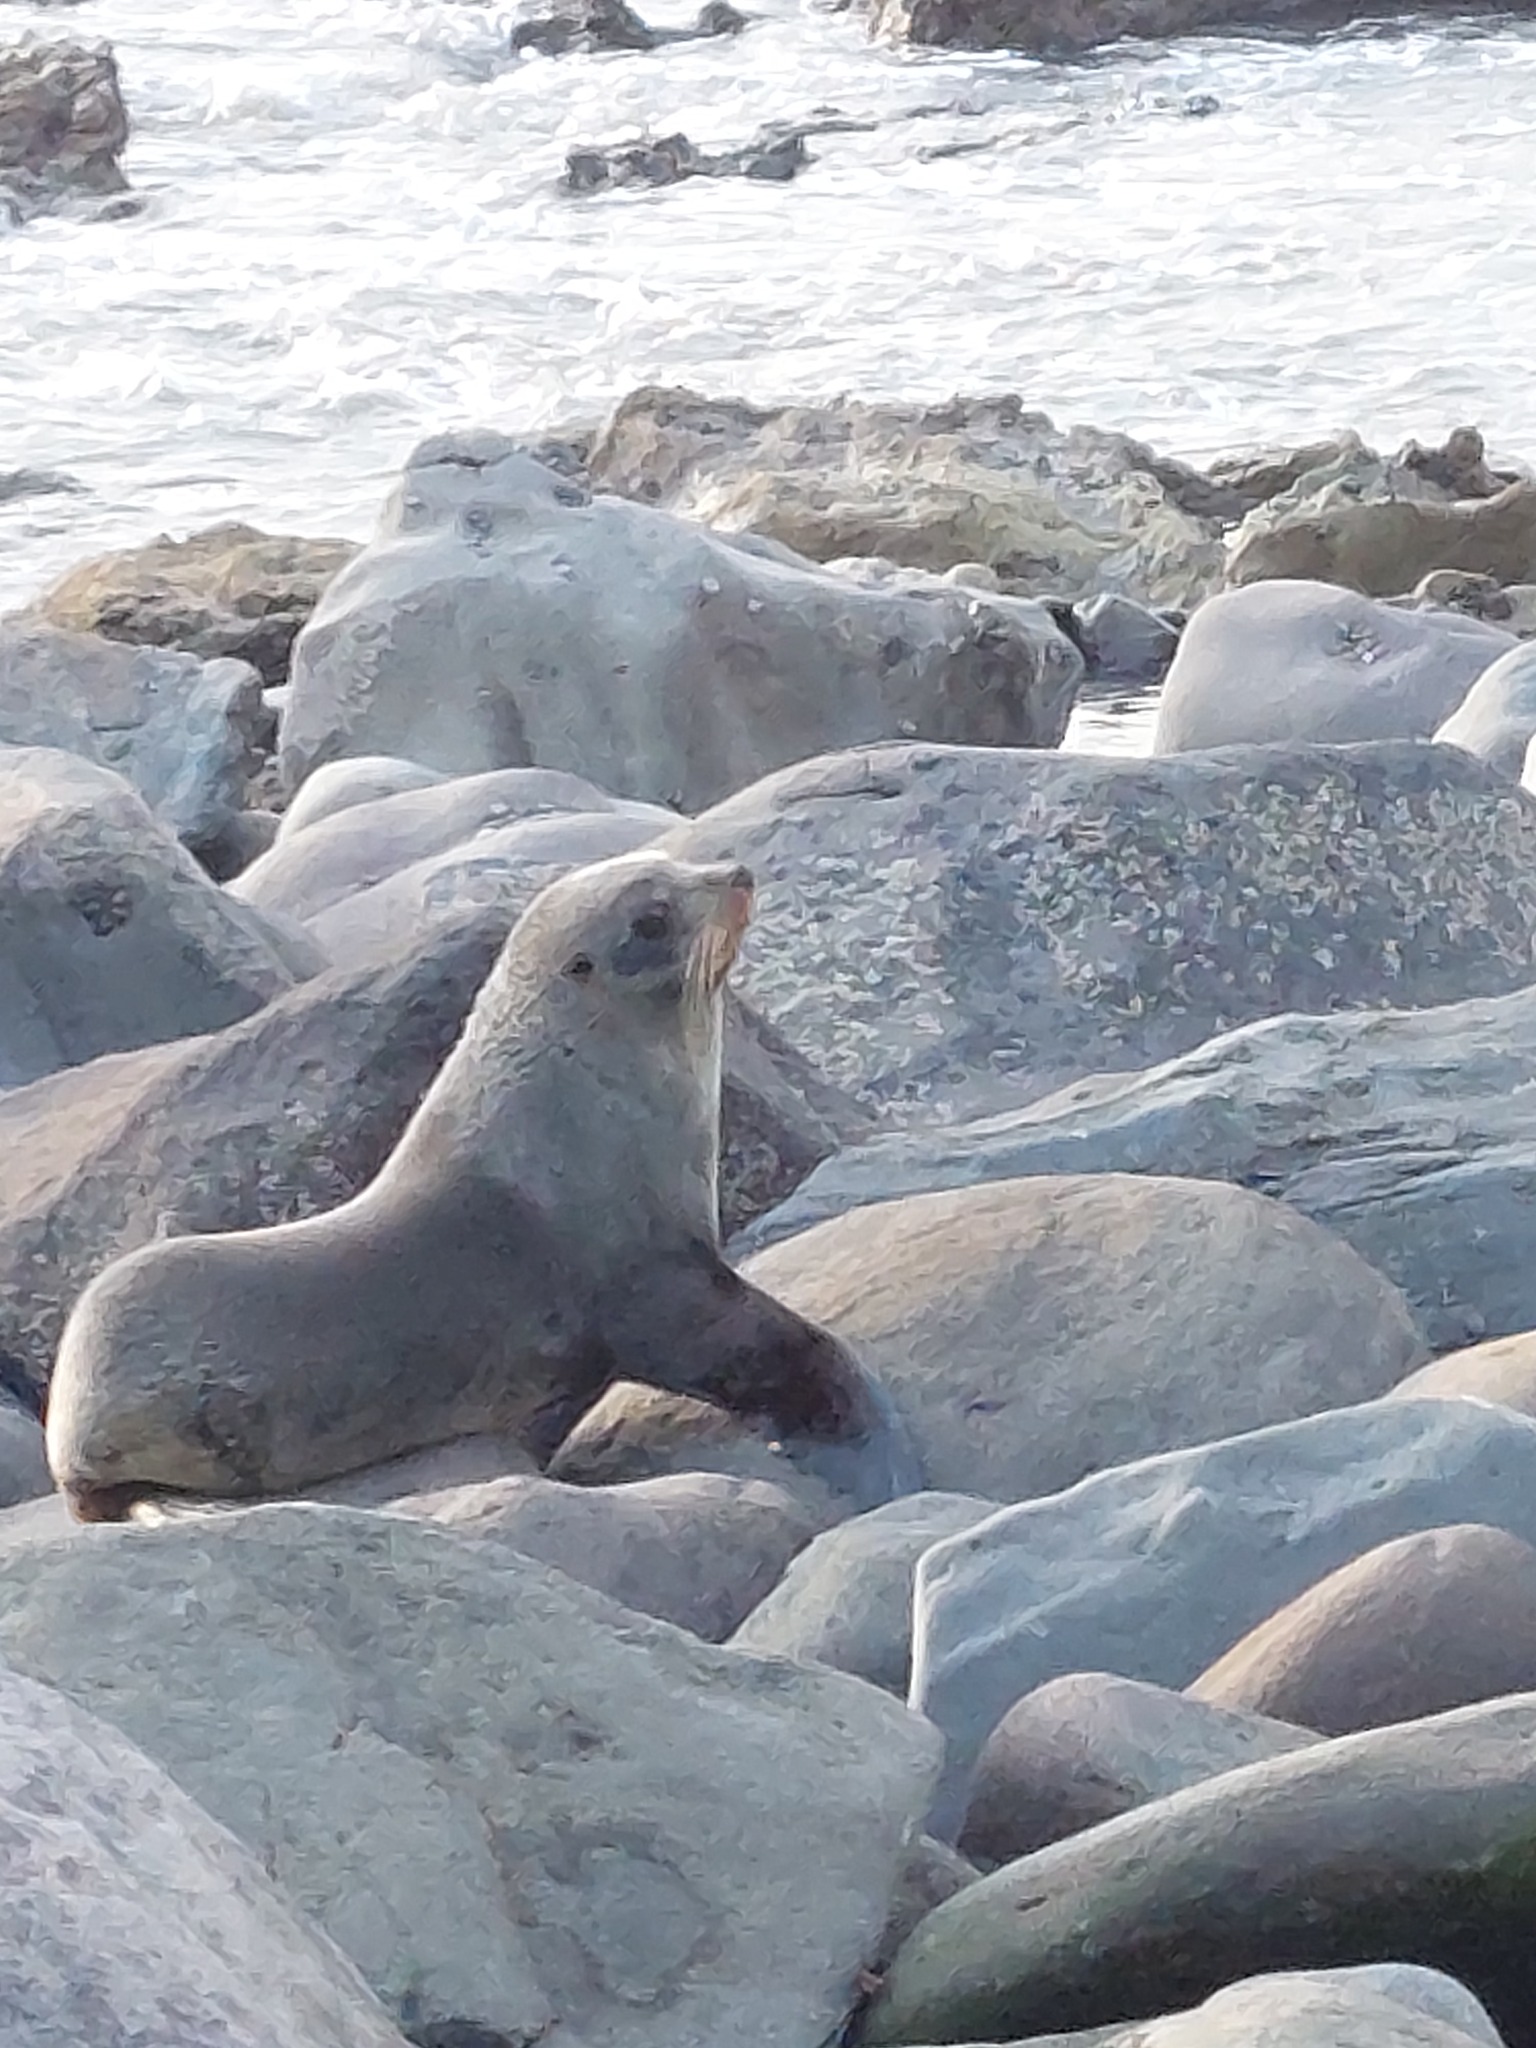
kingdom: Animalia
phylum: Chordata
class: Mammalia
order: Carnivora
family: Otariidae
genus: Arctocephalus
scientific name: Arctocephalus forsteri
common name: New zealand fur seal
